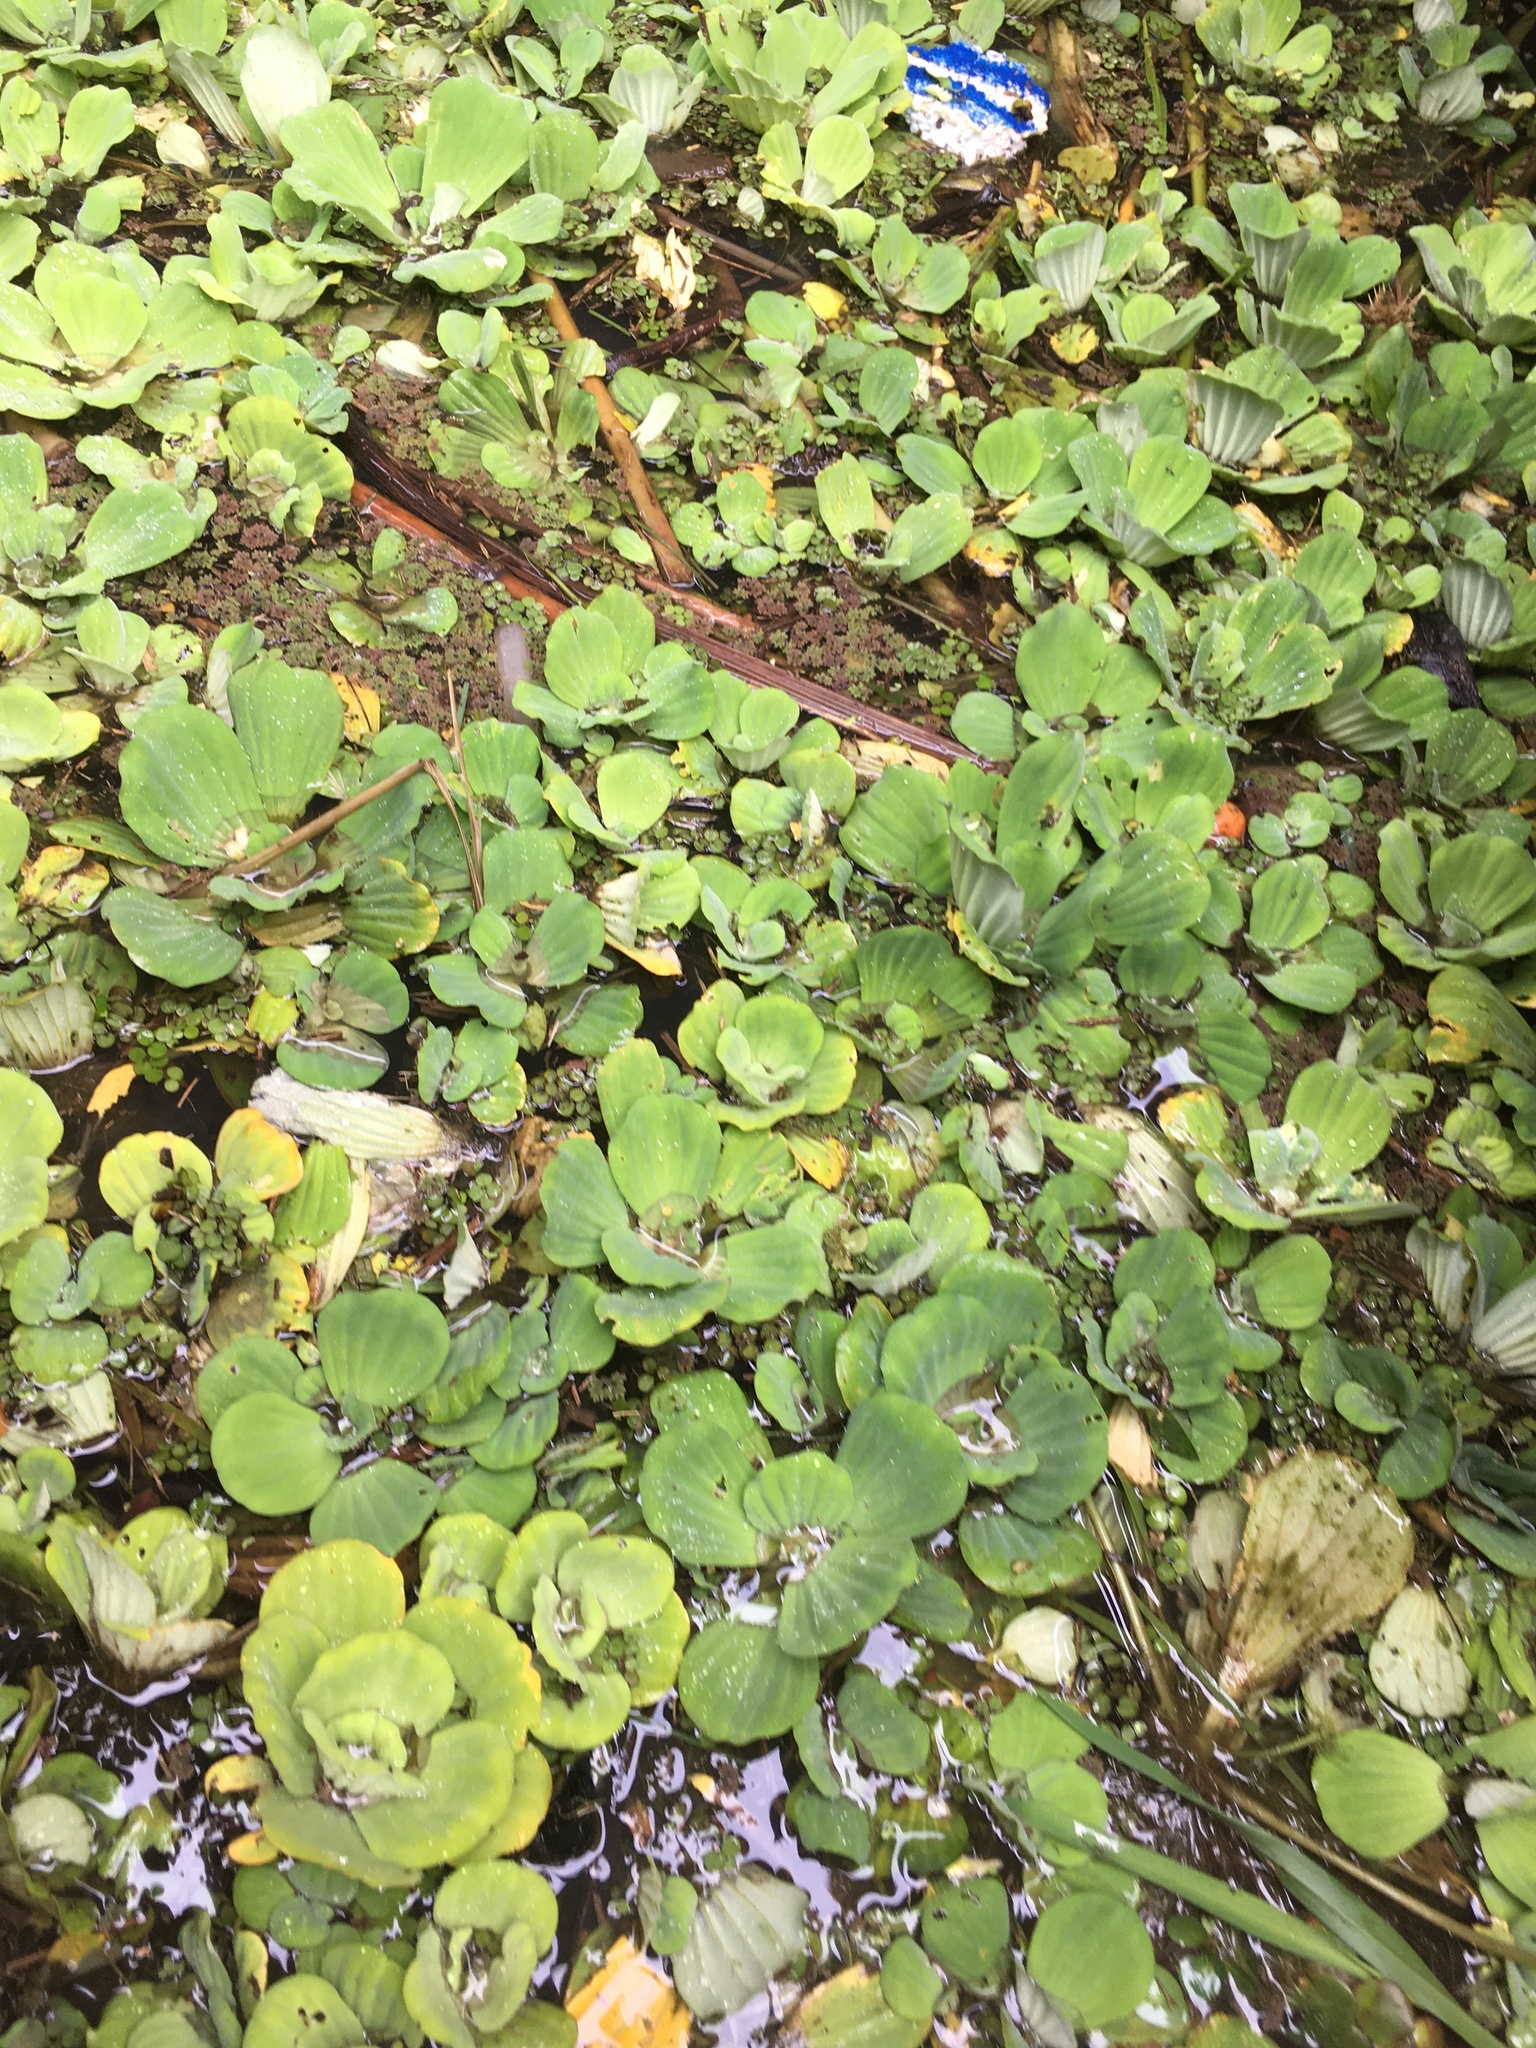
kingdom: Plantae
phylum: Tracheophyta
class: Liliopsida
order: Alismatales
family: Araceae
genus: Pistia
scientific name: Pistia stratiotes
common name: Water lettuce
